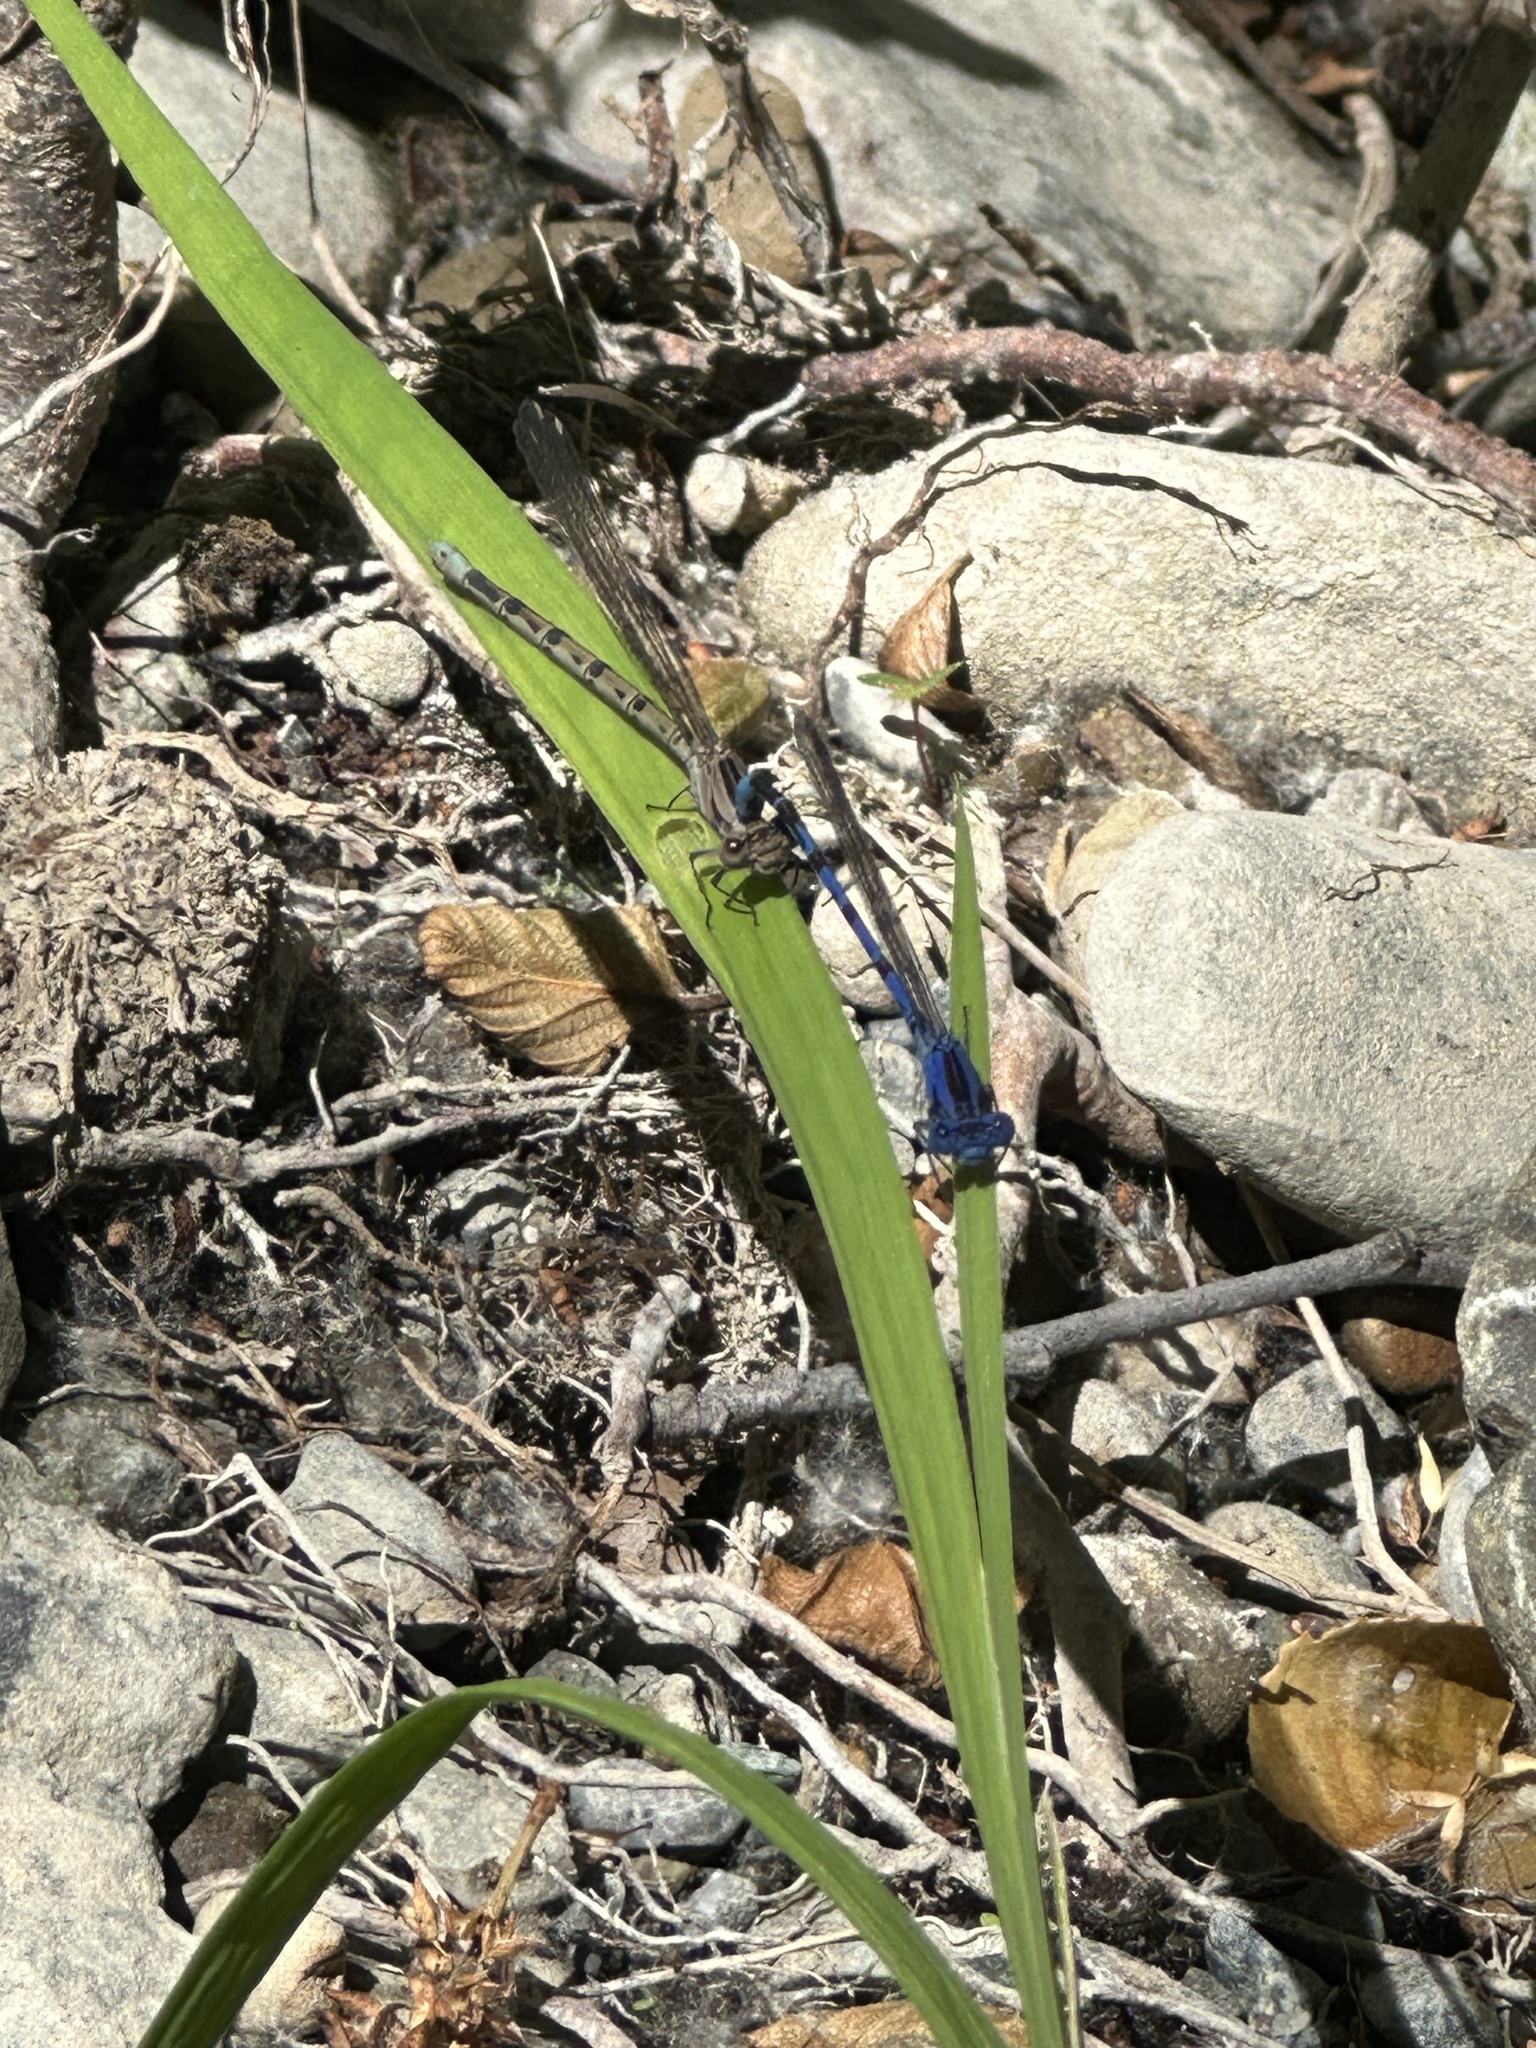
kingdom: Animalia
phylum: Arthropoda
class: Insecta
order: Odonata
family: Coenagrionidae
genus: Argia
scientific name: Argia vivida
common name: Vivid dancer
